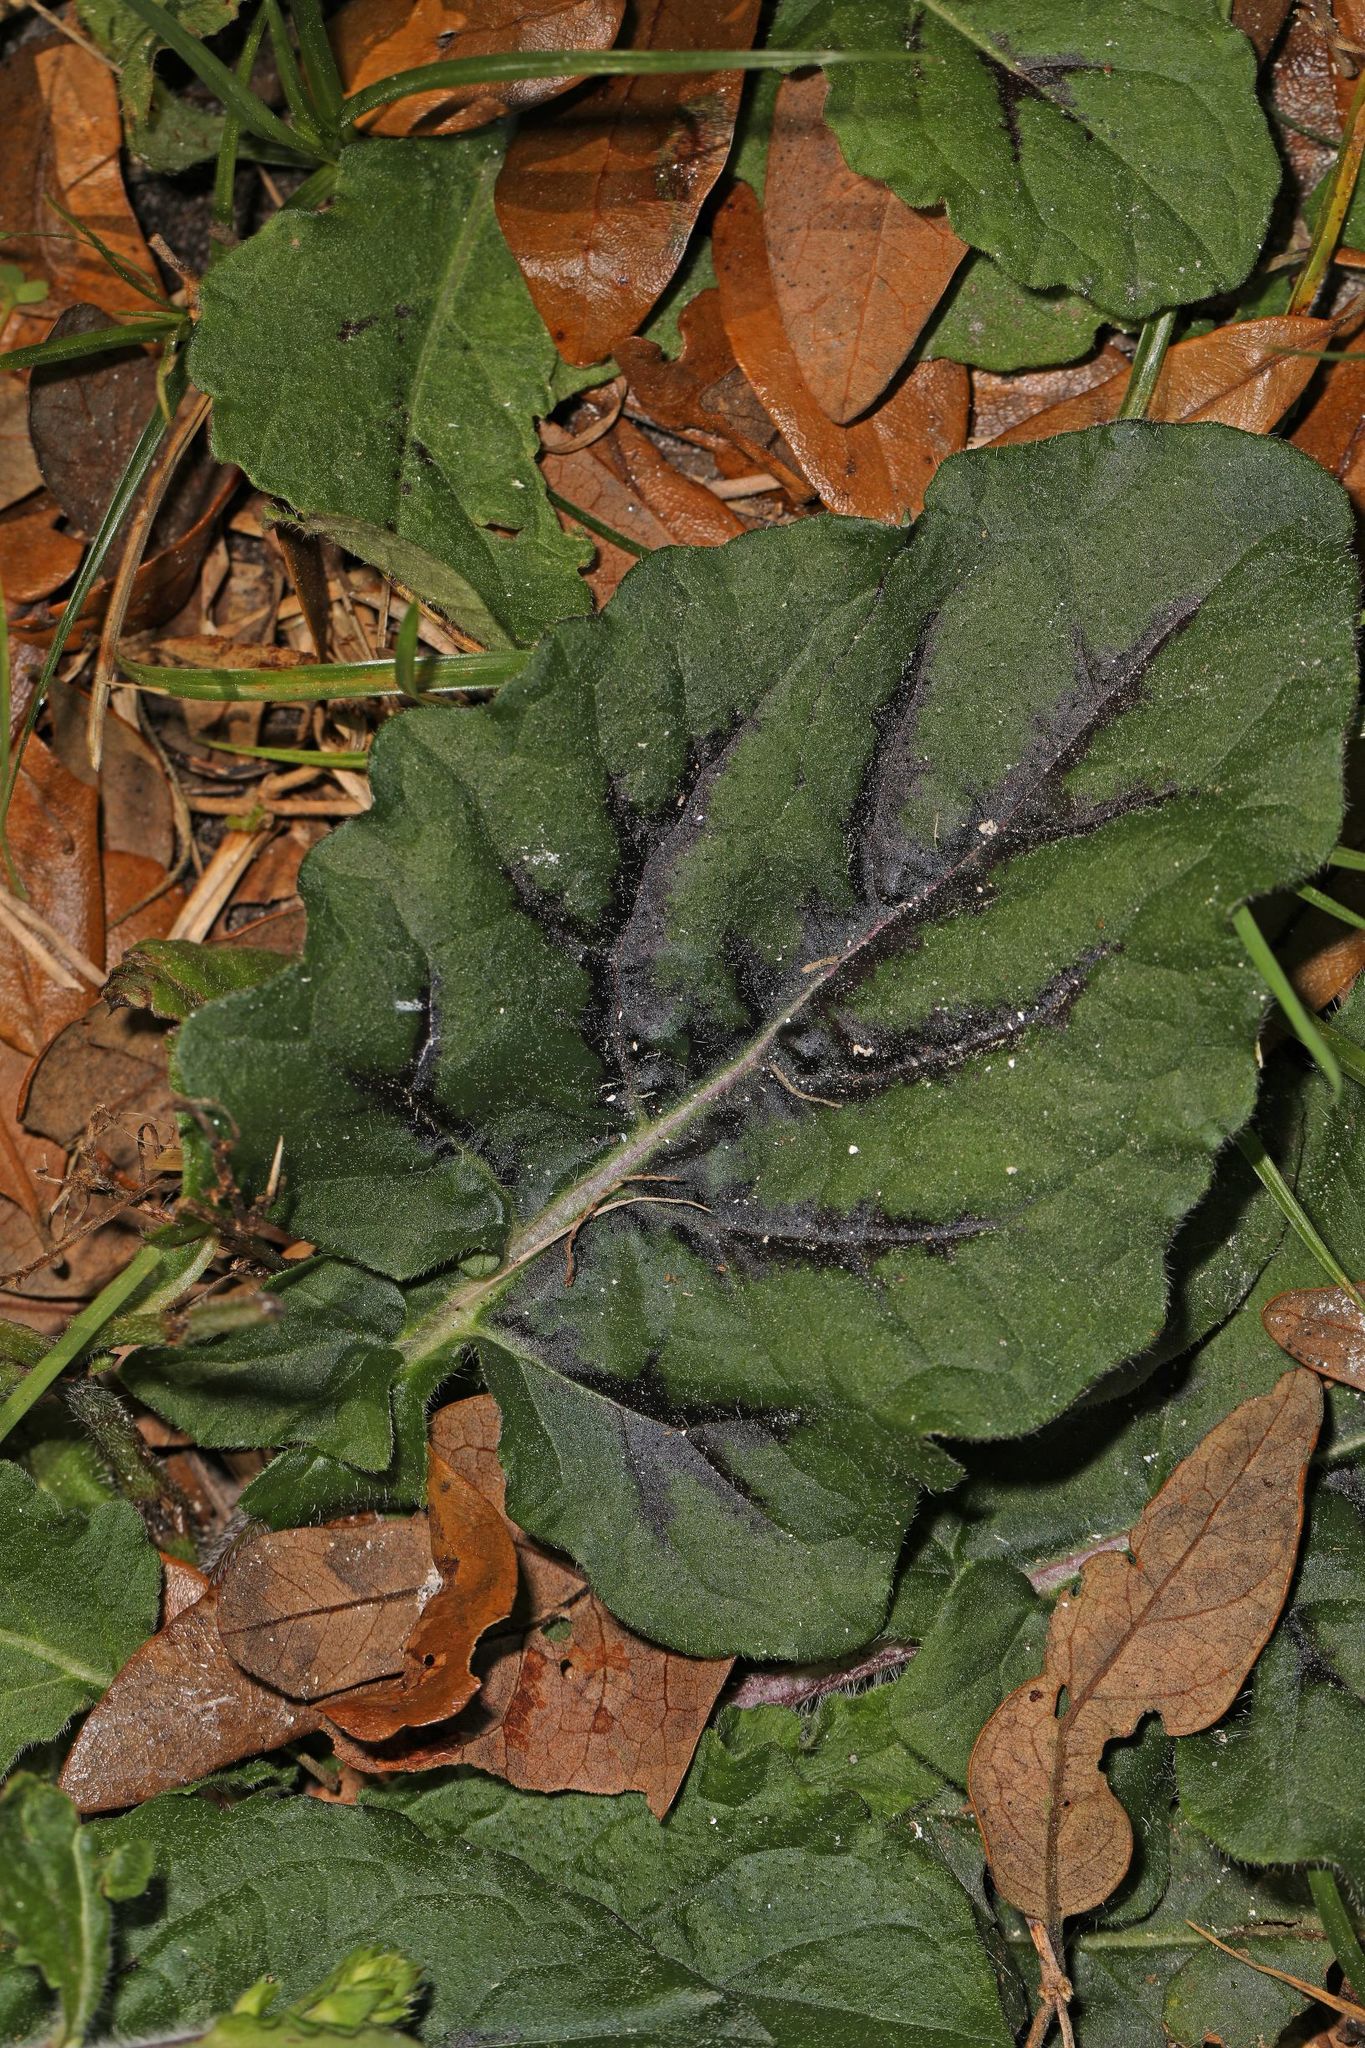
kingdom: Plantae
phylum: Tracheophyta
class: Magnoliopsida
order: Lamiales
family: Lamiaceae
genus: Salvia
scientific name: Salvia lyrata
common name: Cancerweed
